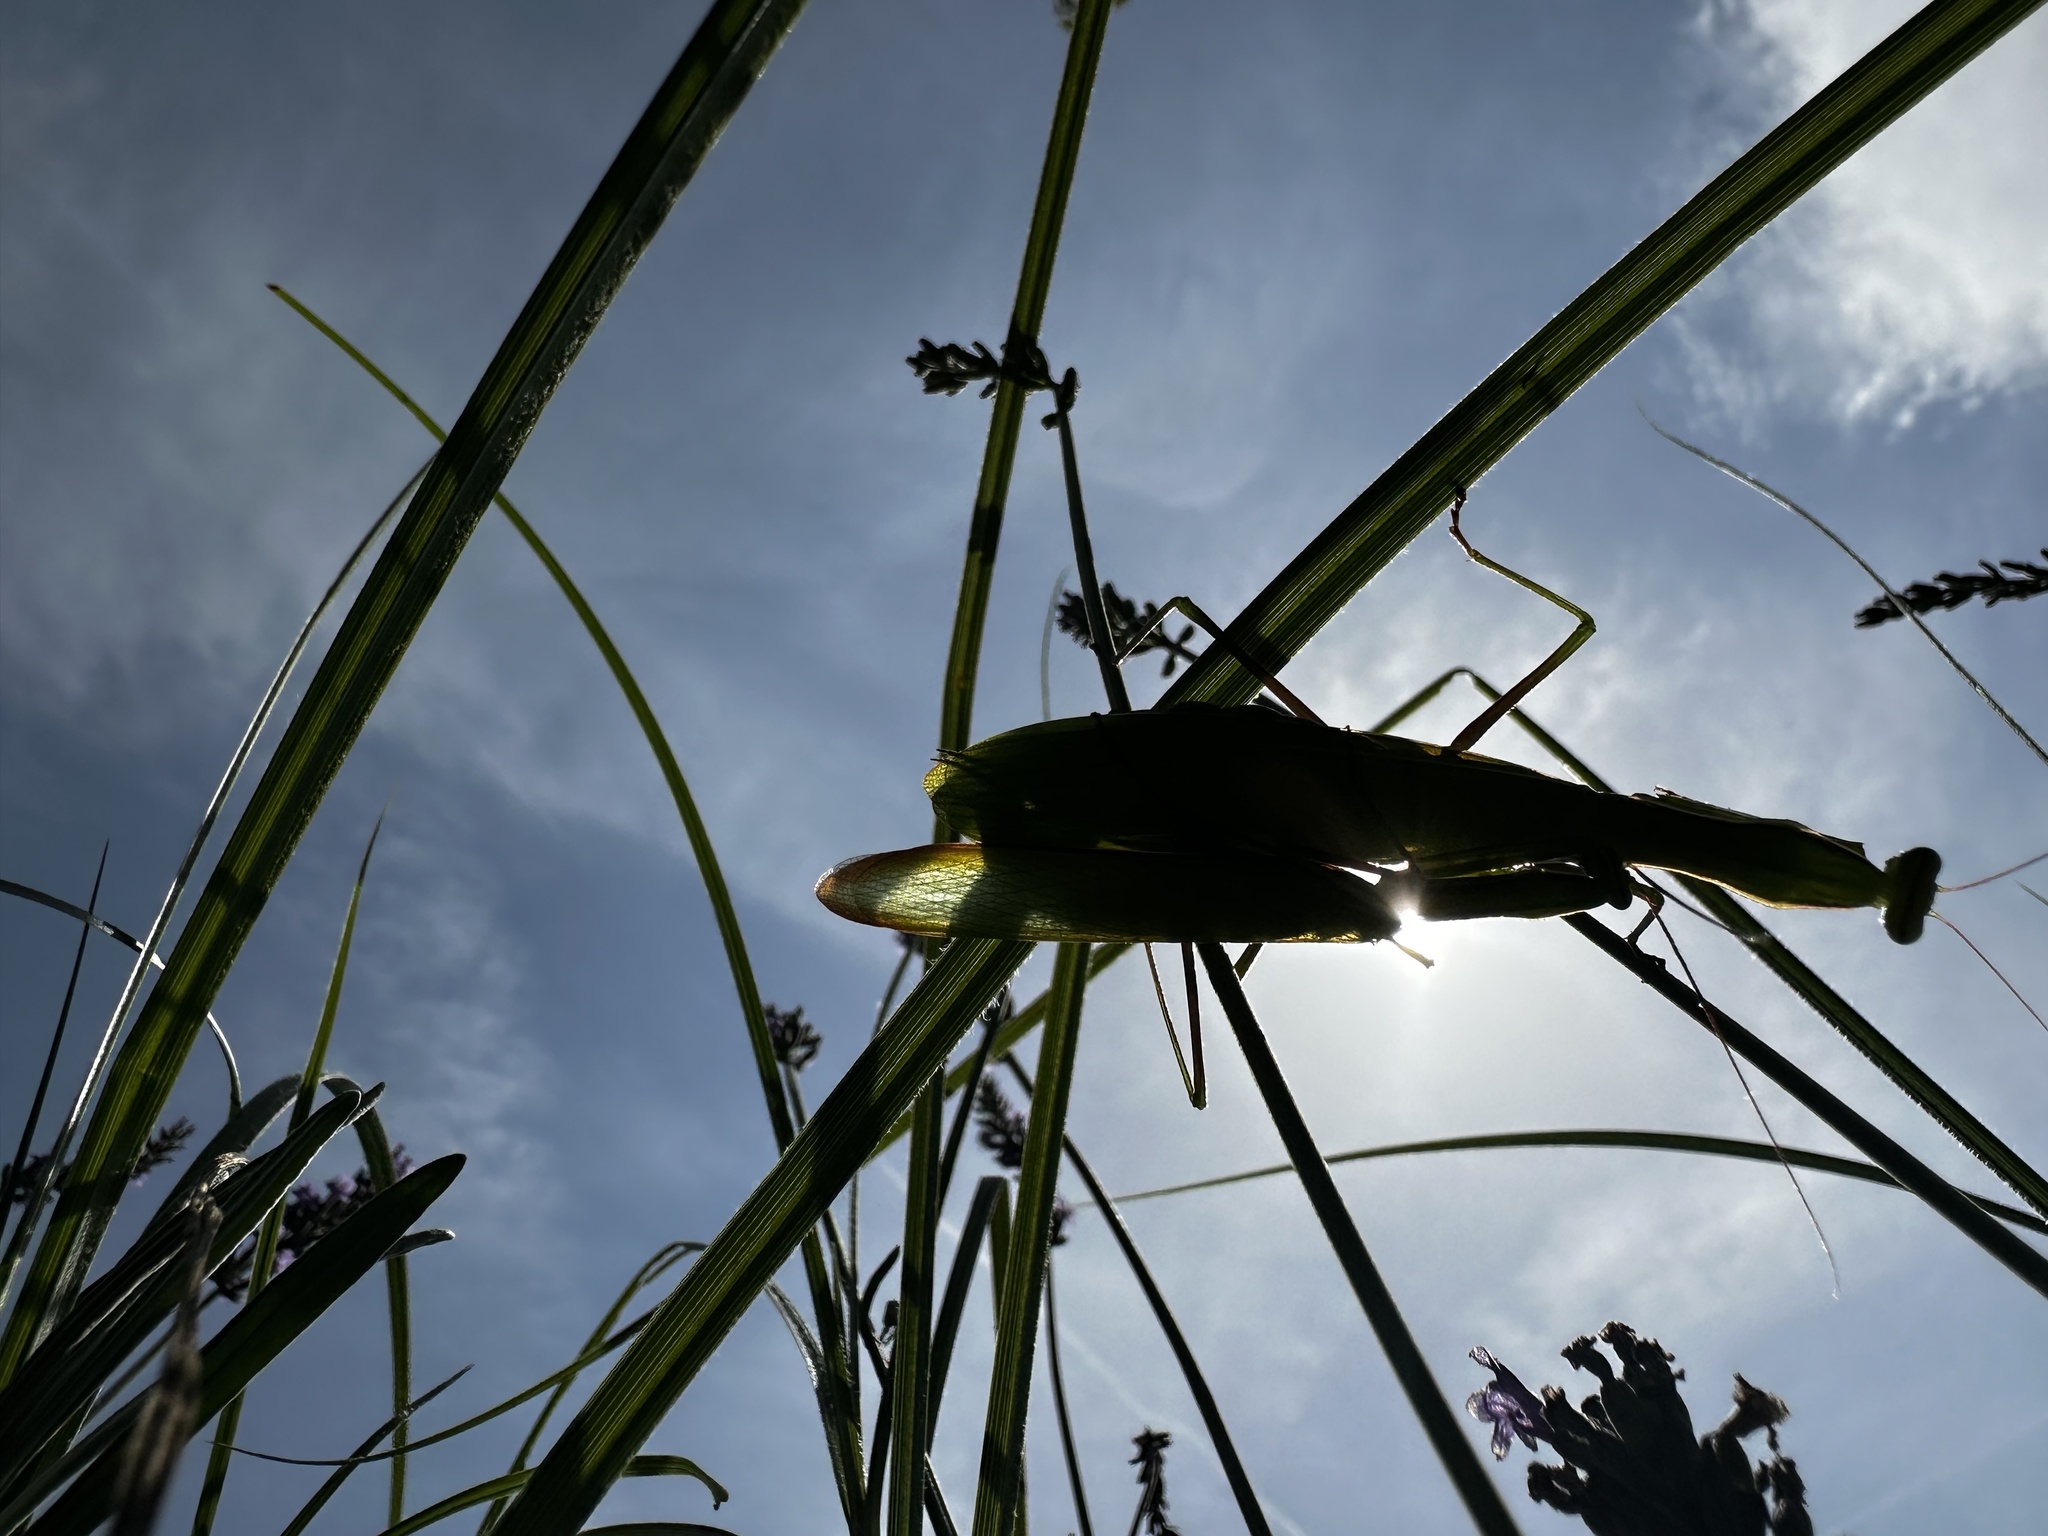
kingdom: Animalia
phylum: Arthropoda
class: Insecta
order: Mantodea
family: Mantidae
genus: Mantis
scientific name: Mantis religiosa
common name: Praying mantis
